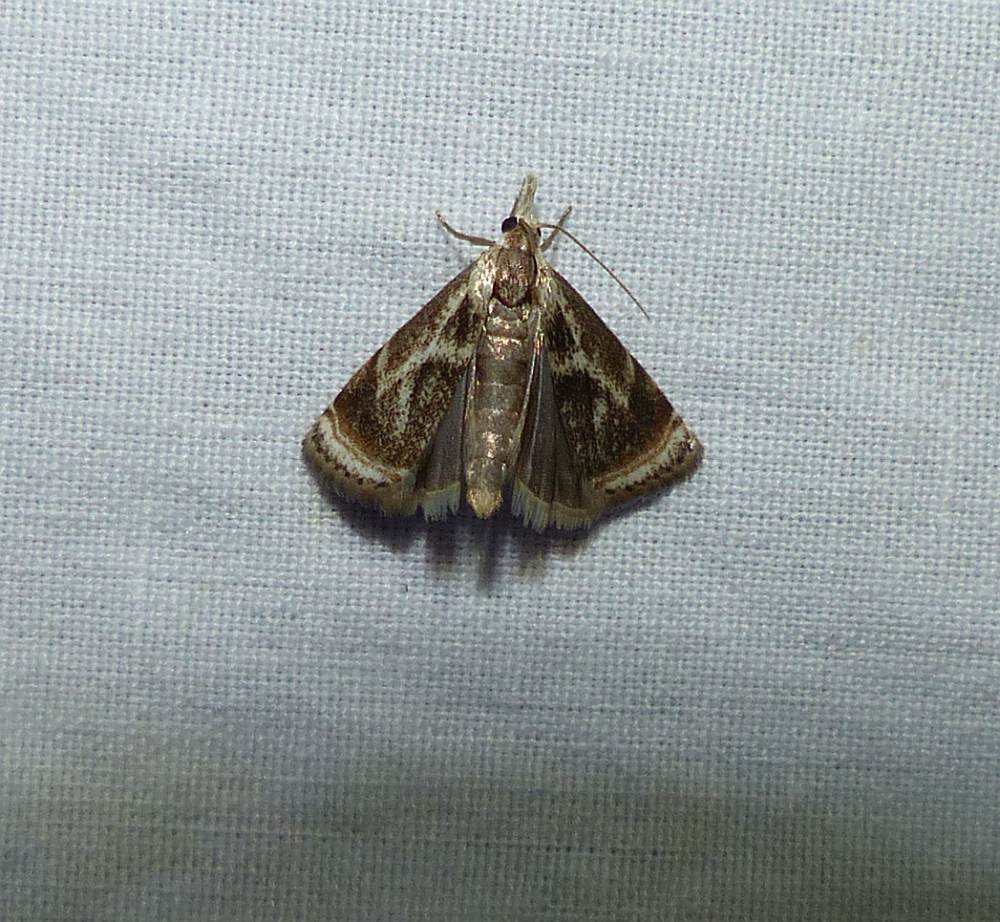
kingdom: Animalia
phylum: Arthropoda
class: Insecta
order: Lepidoptera
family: Crambidae
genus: Microcrambus
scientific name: Microcrambus elegans
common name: Elegant grass-veneer
